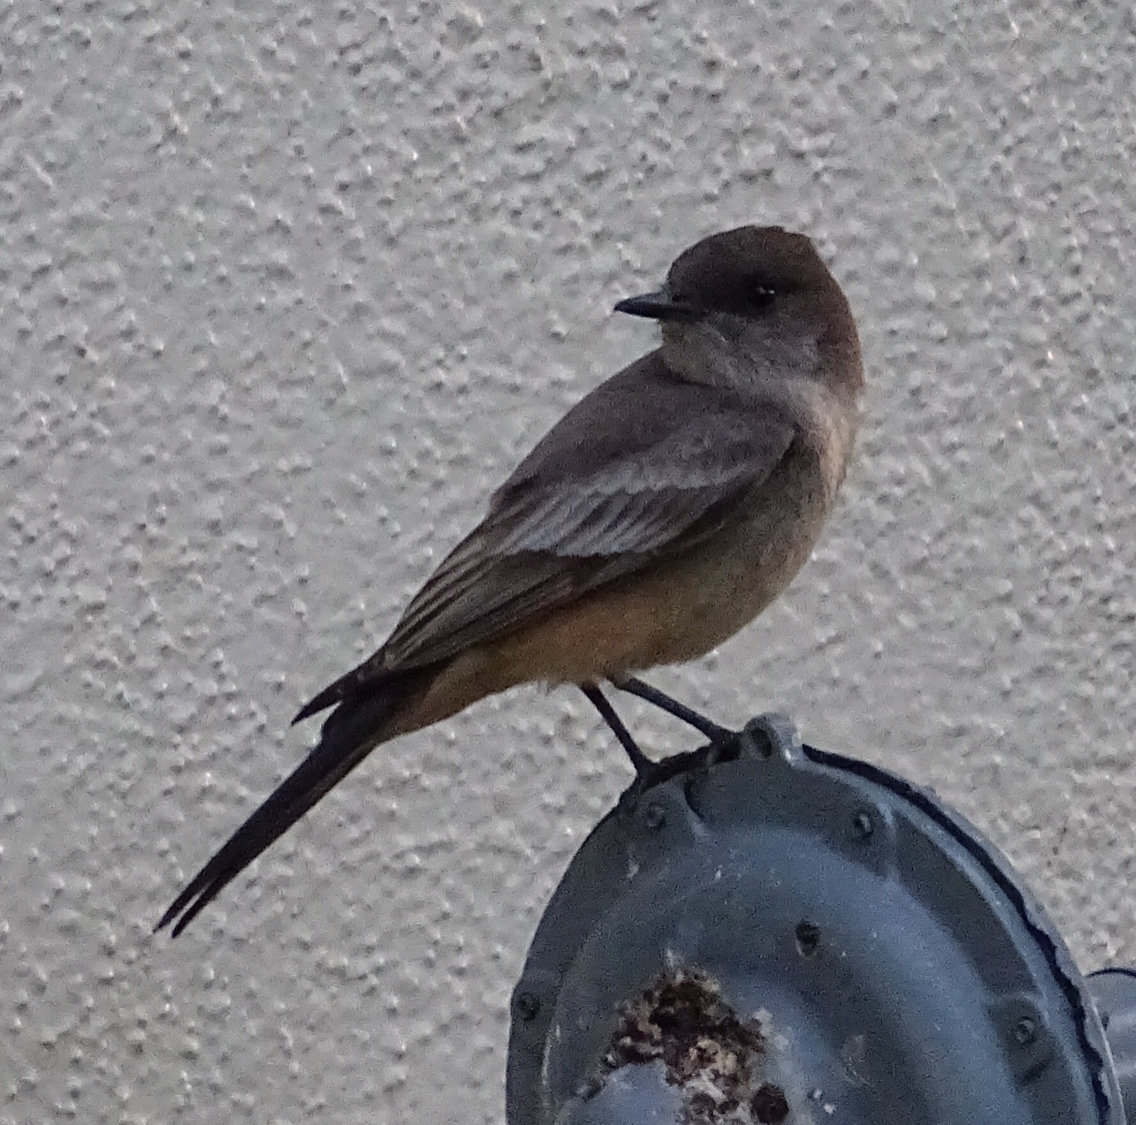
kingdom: Animalia
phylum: Chordata
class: Aves
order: Passeriformes
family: Tyrannidae
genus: Sayornis
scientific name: Sayornis saya
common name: Say's phoebe
